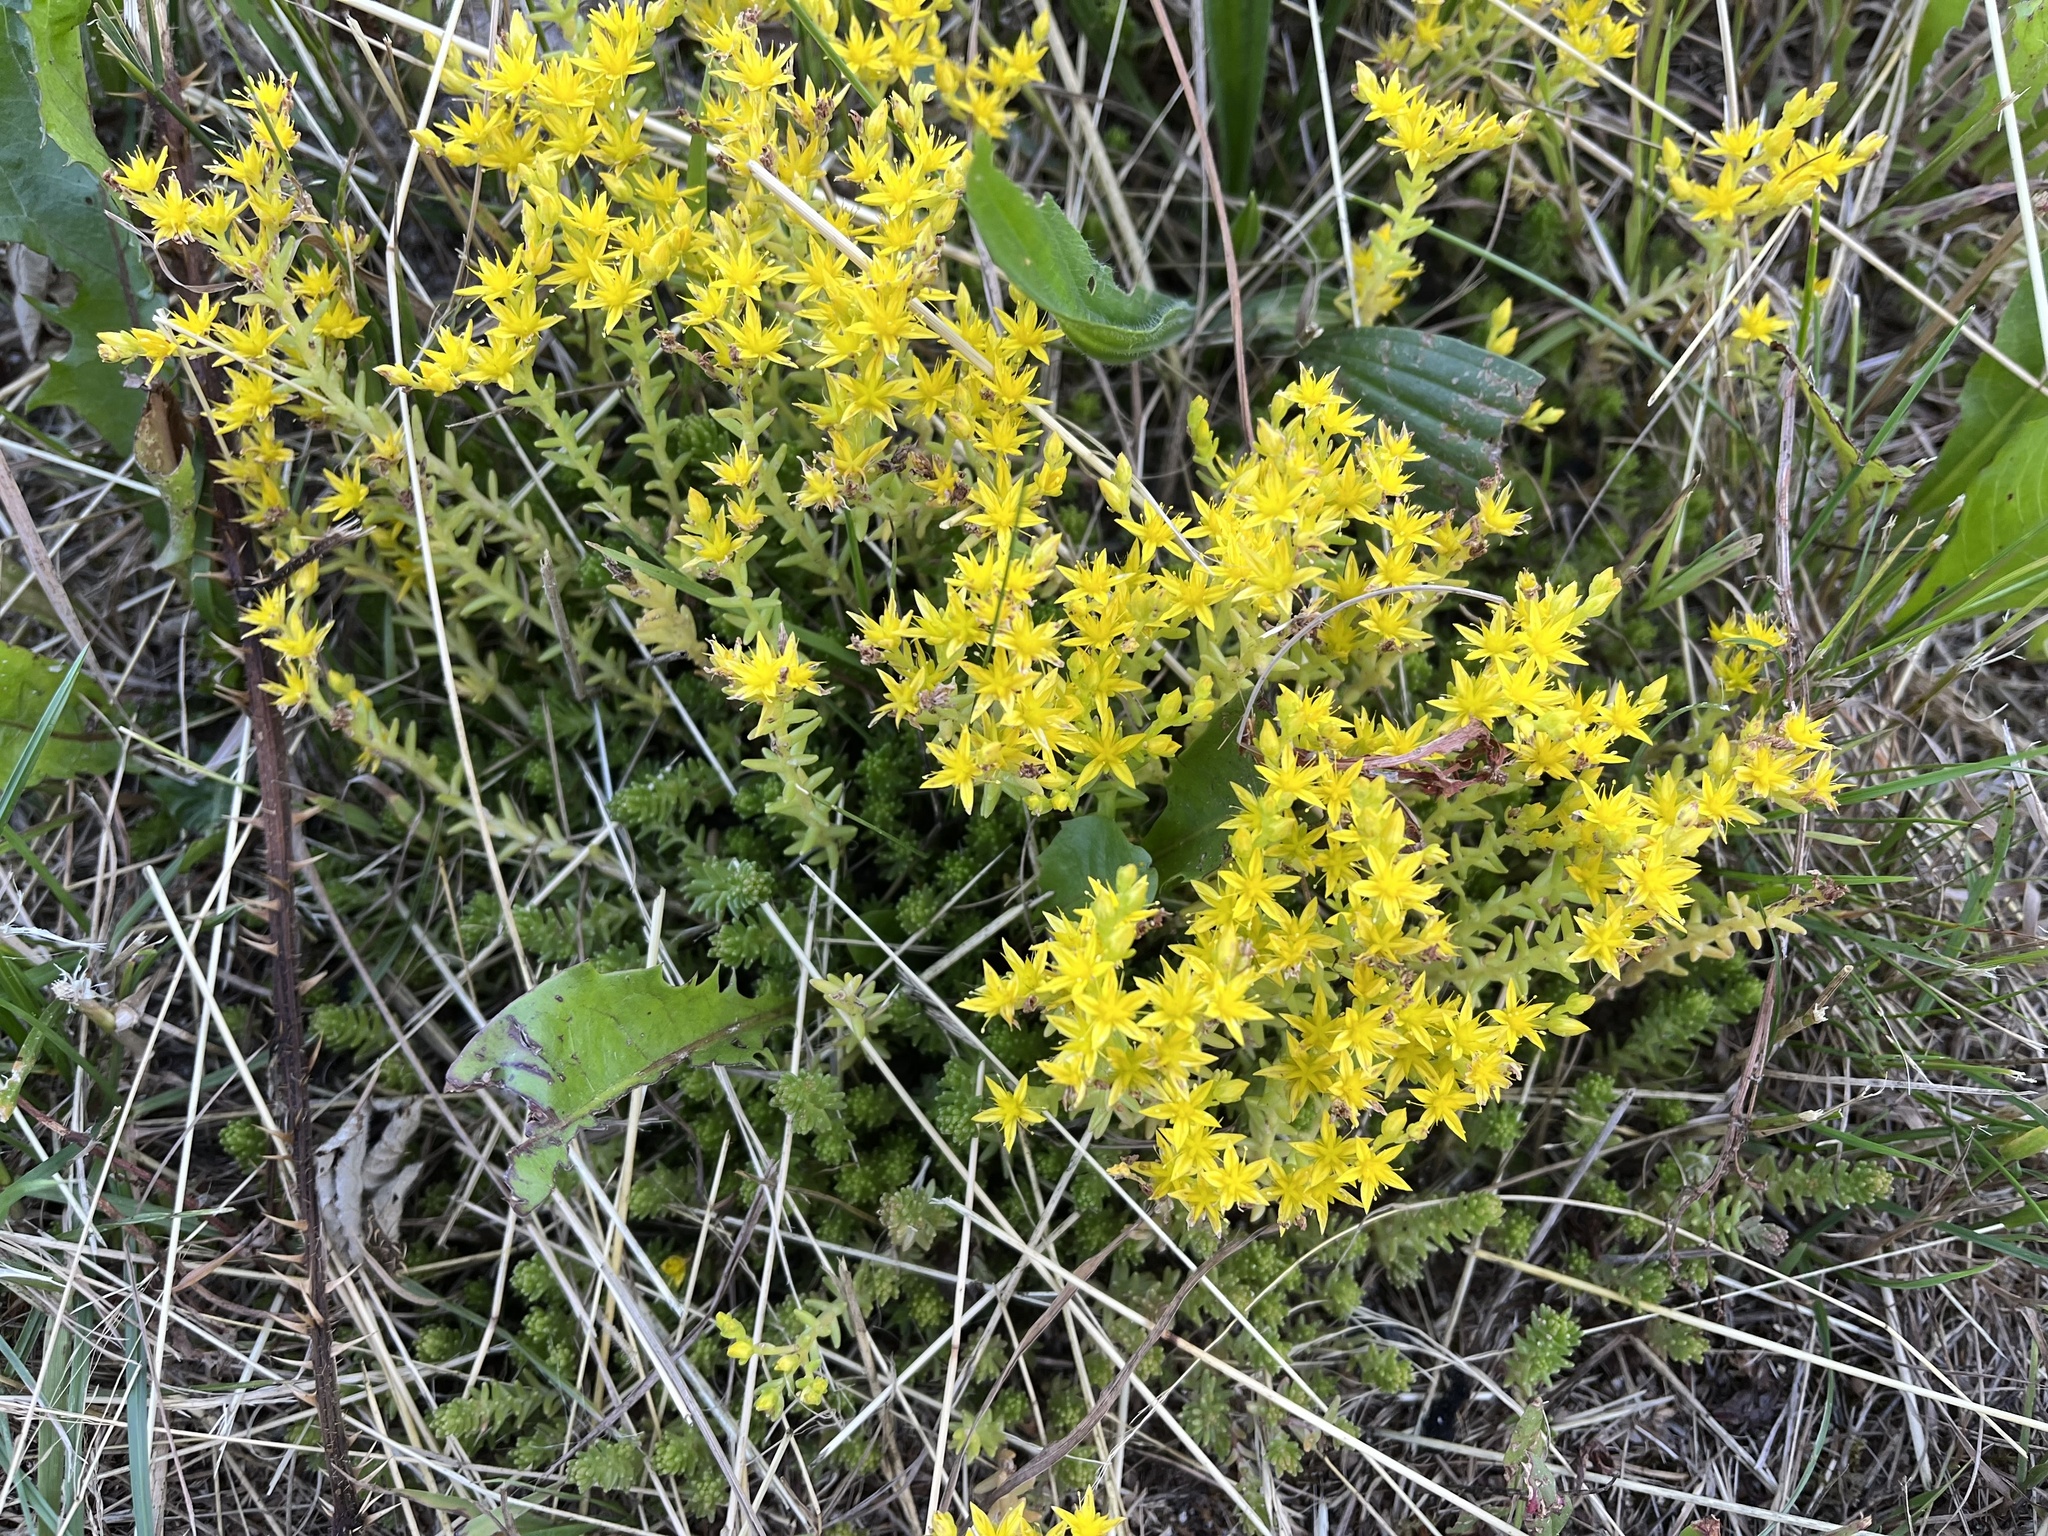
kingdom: Plantae
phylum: Tracheophyta
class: Magnoliopsida
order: Saxifragales
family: Crassulaceae
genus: Sedum
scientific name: Sedum sexangulare
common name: Tasteless stonecrop
